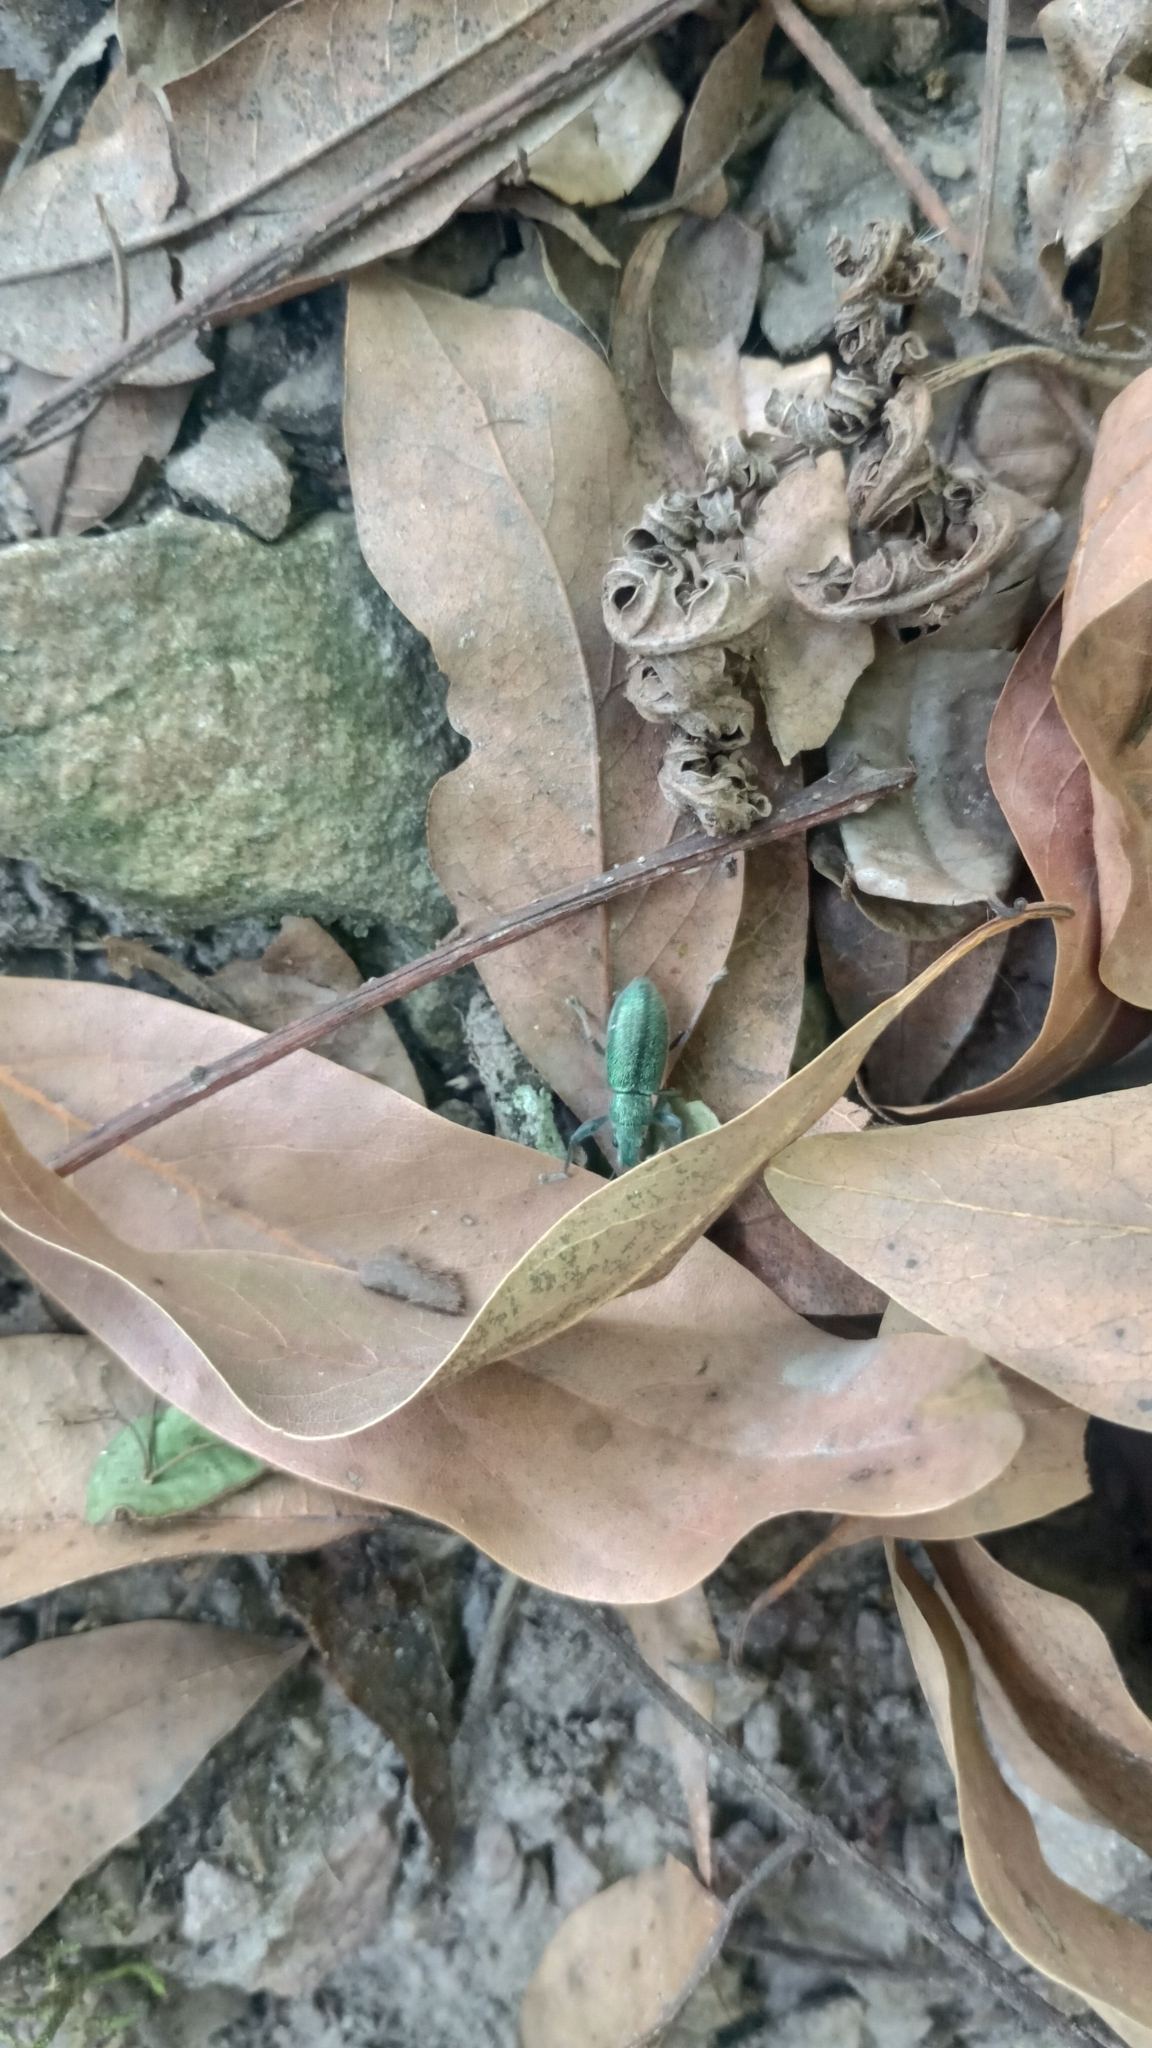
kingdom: Animalia
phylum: Arthropoda
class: Insecta
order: Coleoptera
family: Curculionidae
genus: Naupactus
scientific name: Naupactus auricinctus
